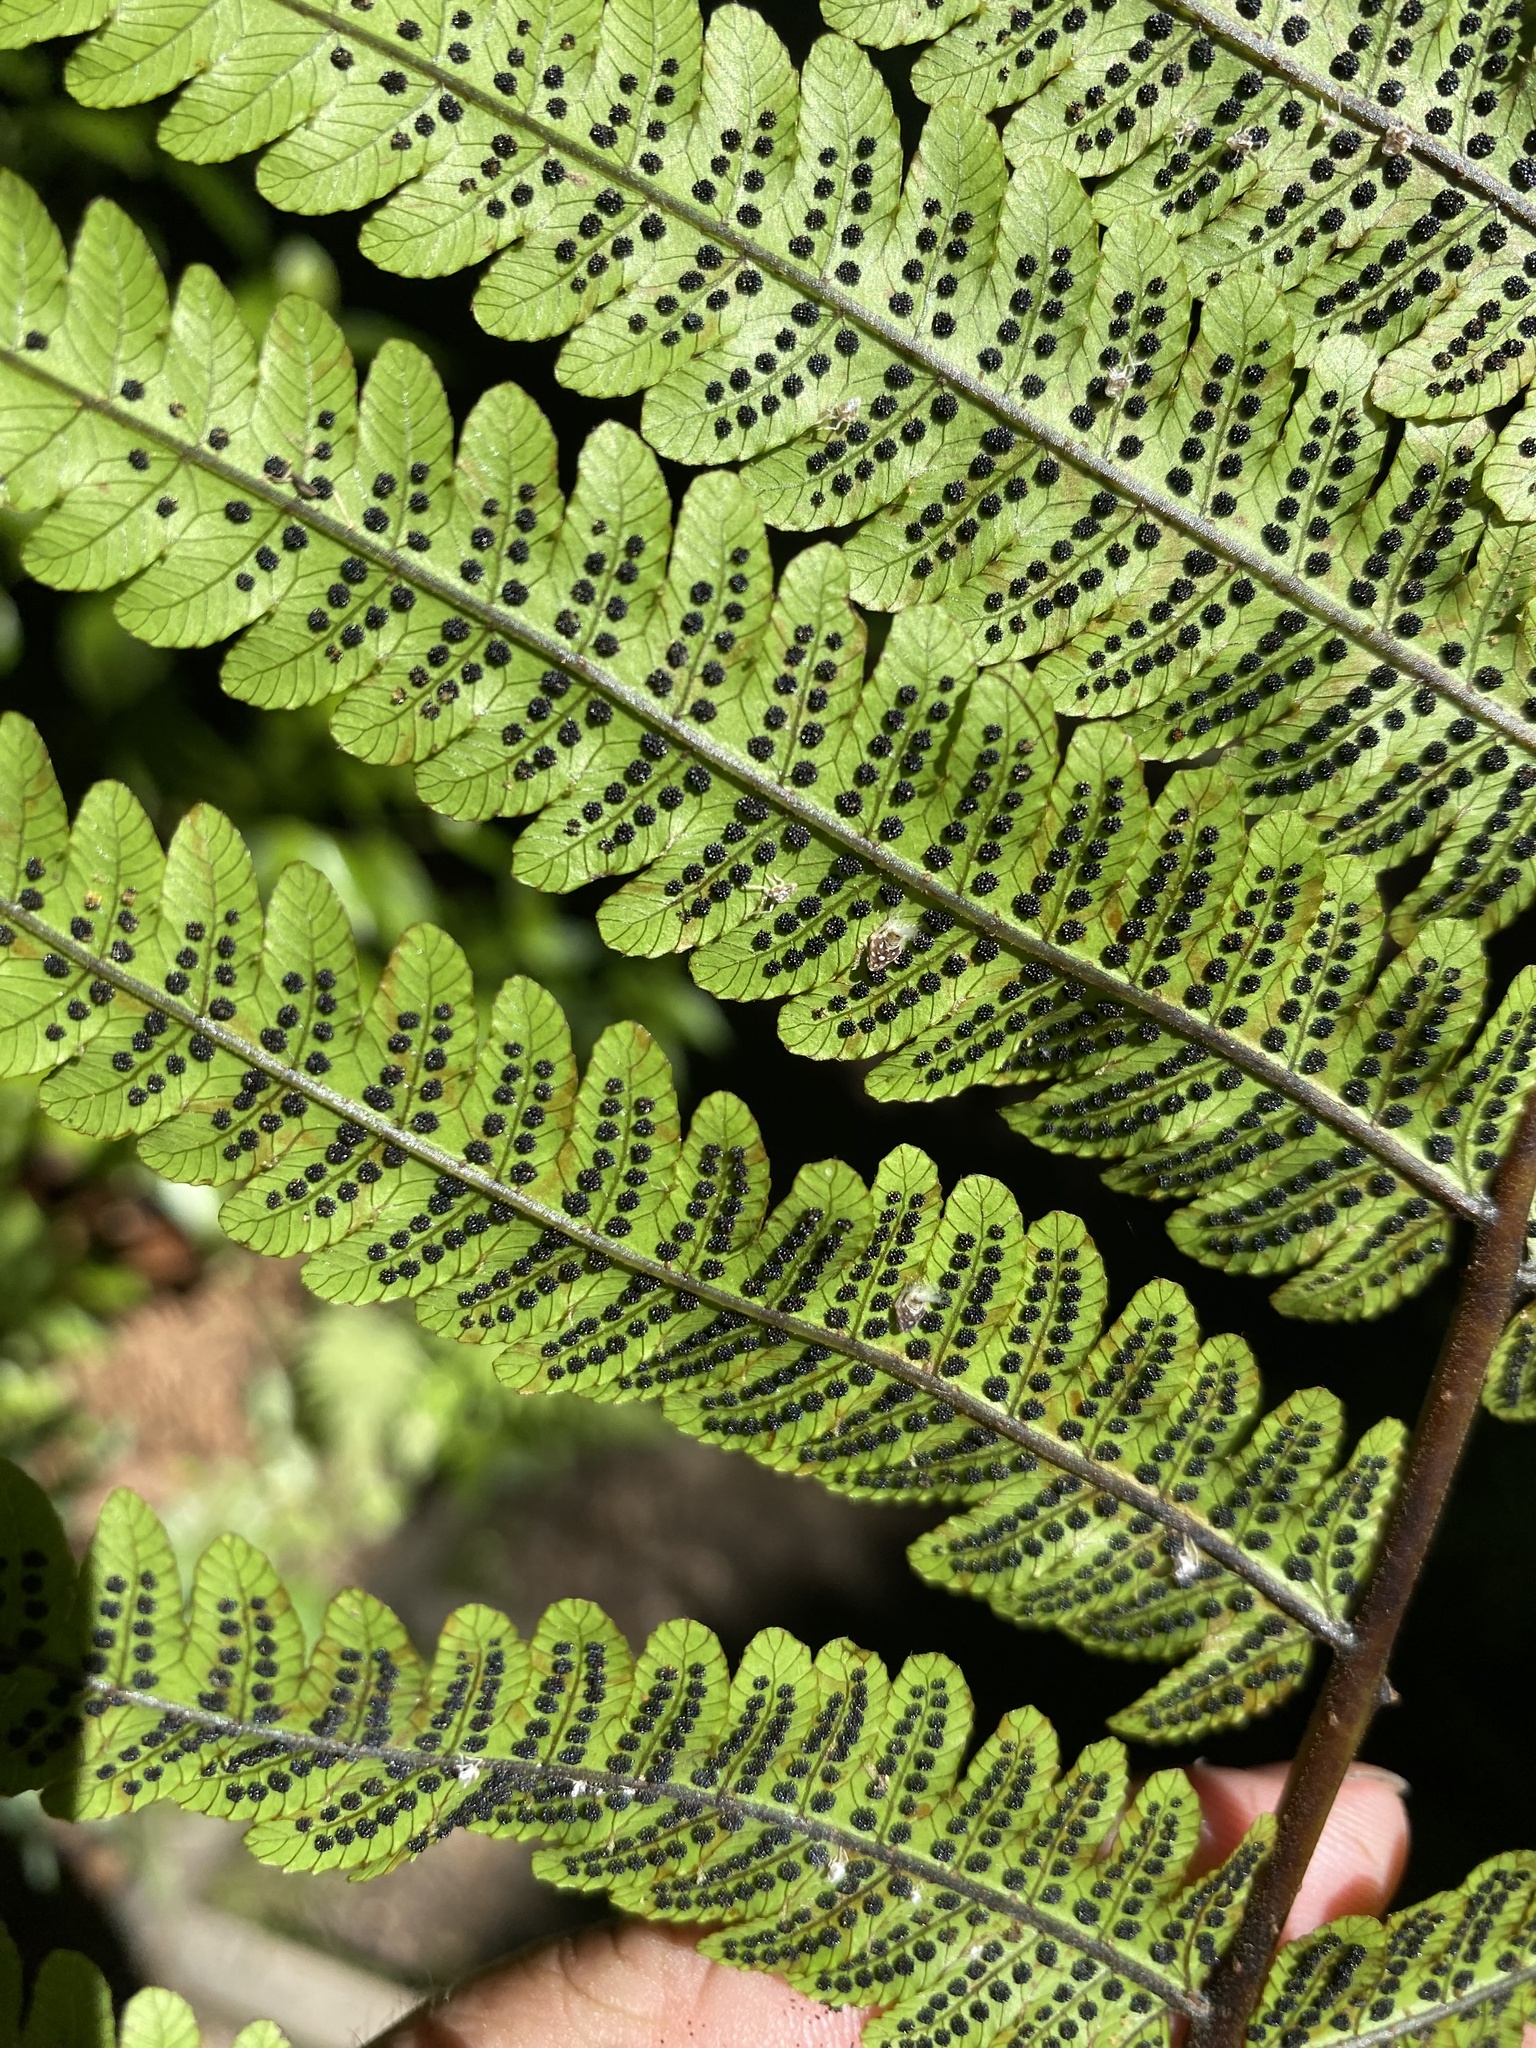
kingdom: Plantae
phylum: Tracheophyta
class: Polypodiopsida
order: Polypodiales
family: Thelypteridaceae
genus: Pakau
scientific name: Pakau pennigera
